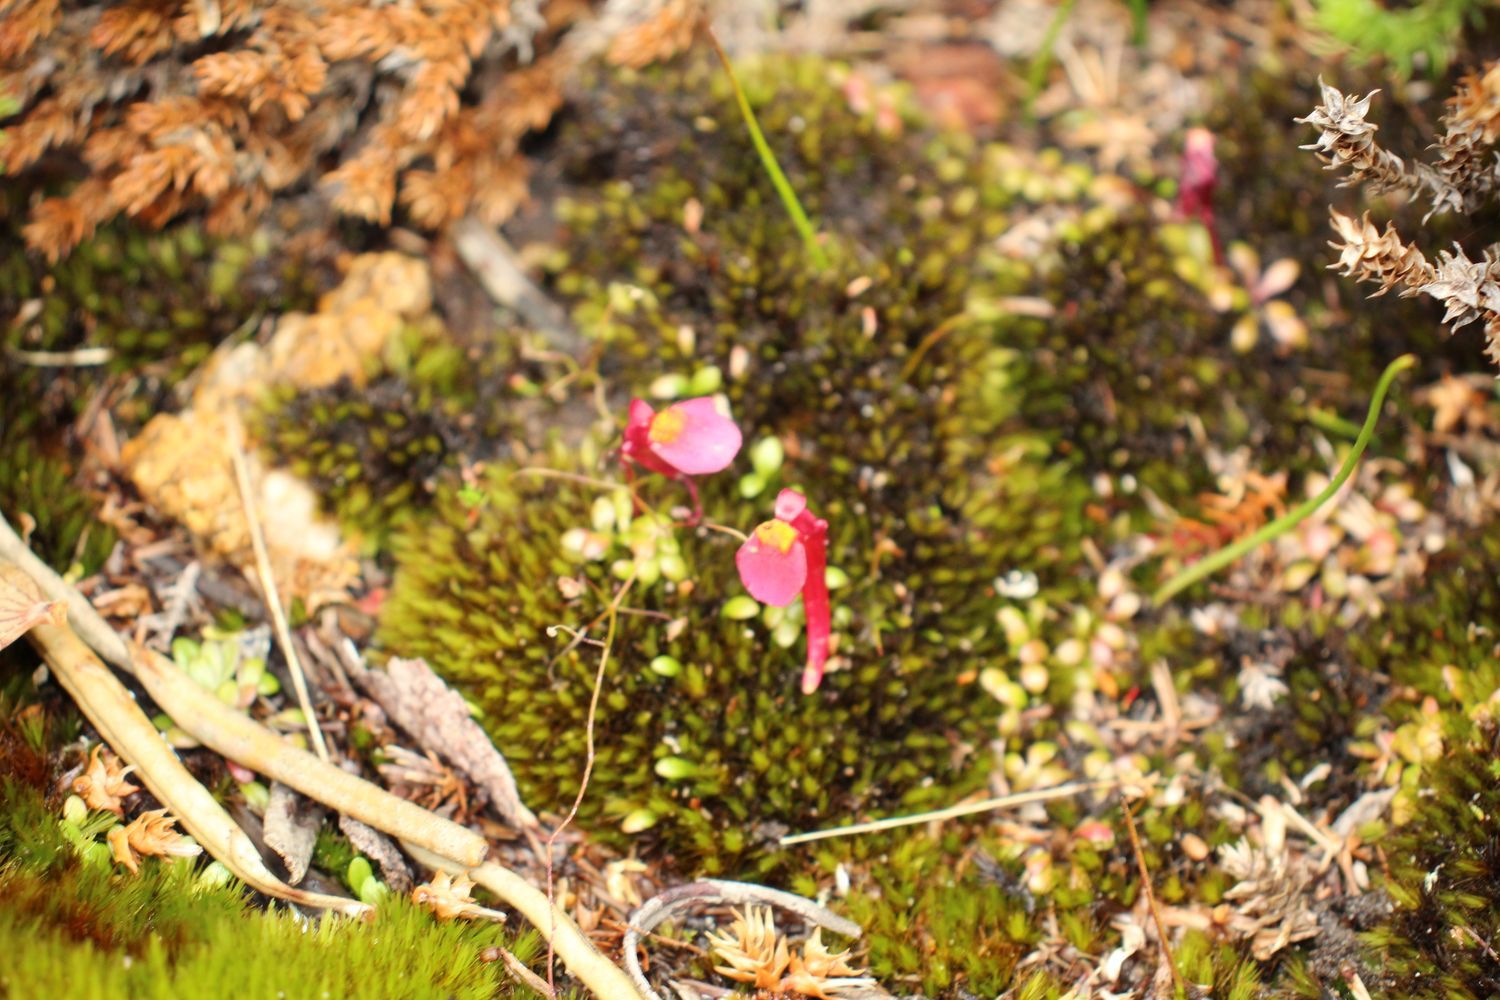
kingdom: Plantae
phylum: Tracheophyta
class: Magnoliopsida
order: Lamiales
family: Lentibulariaceae
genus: Utricularia
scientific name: Utricularia menziesii
